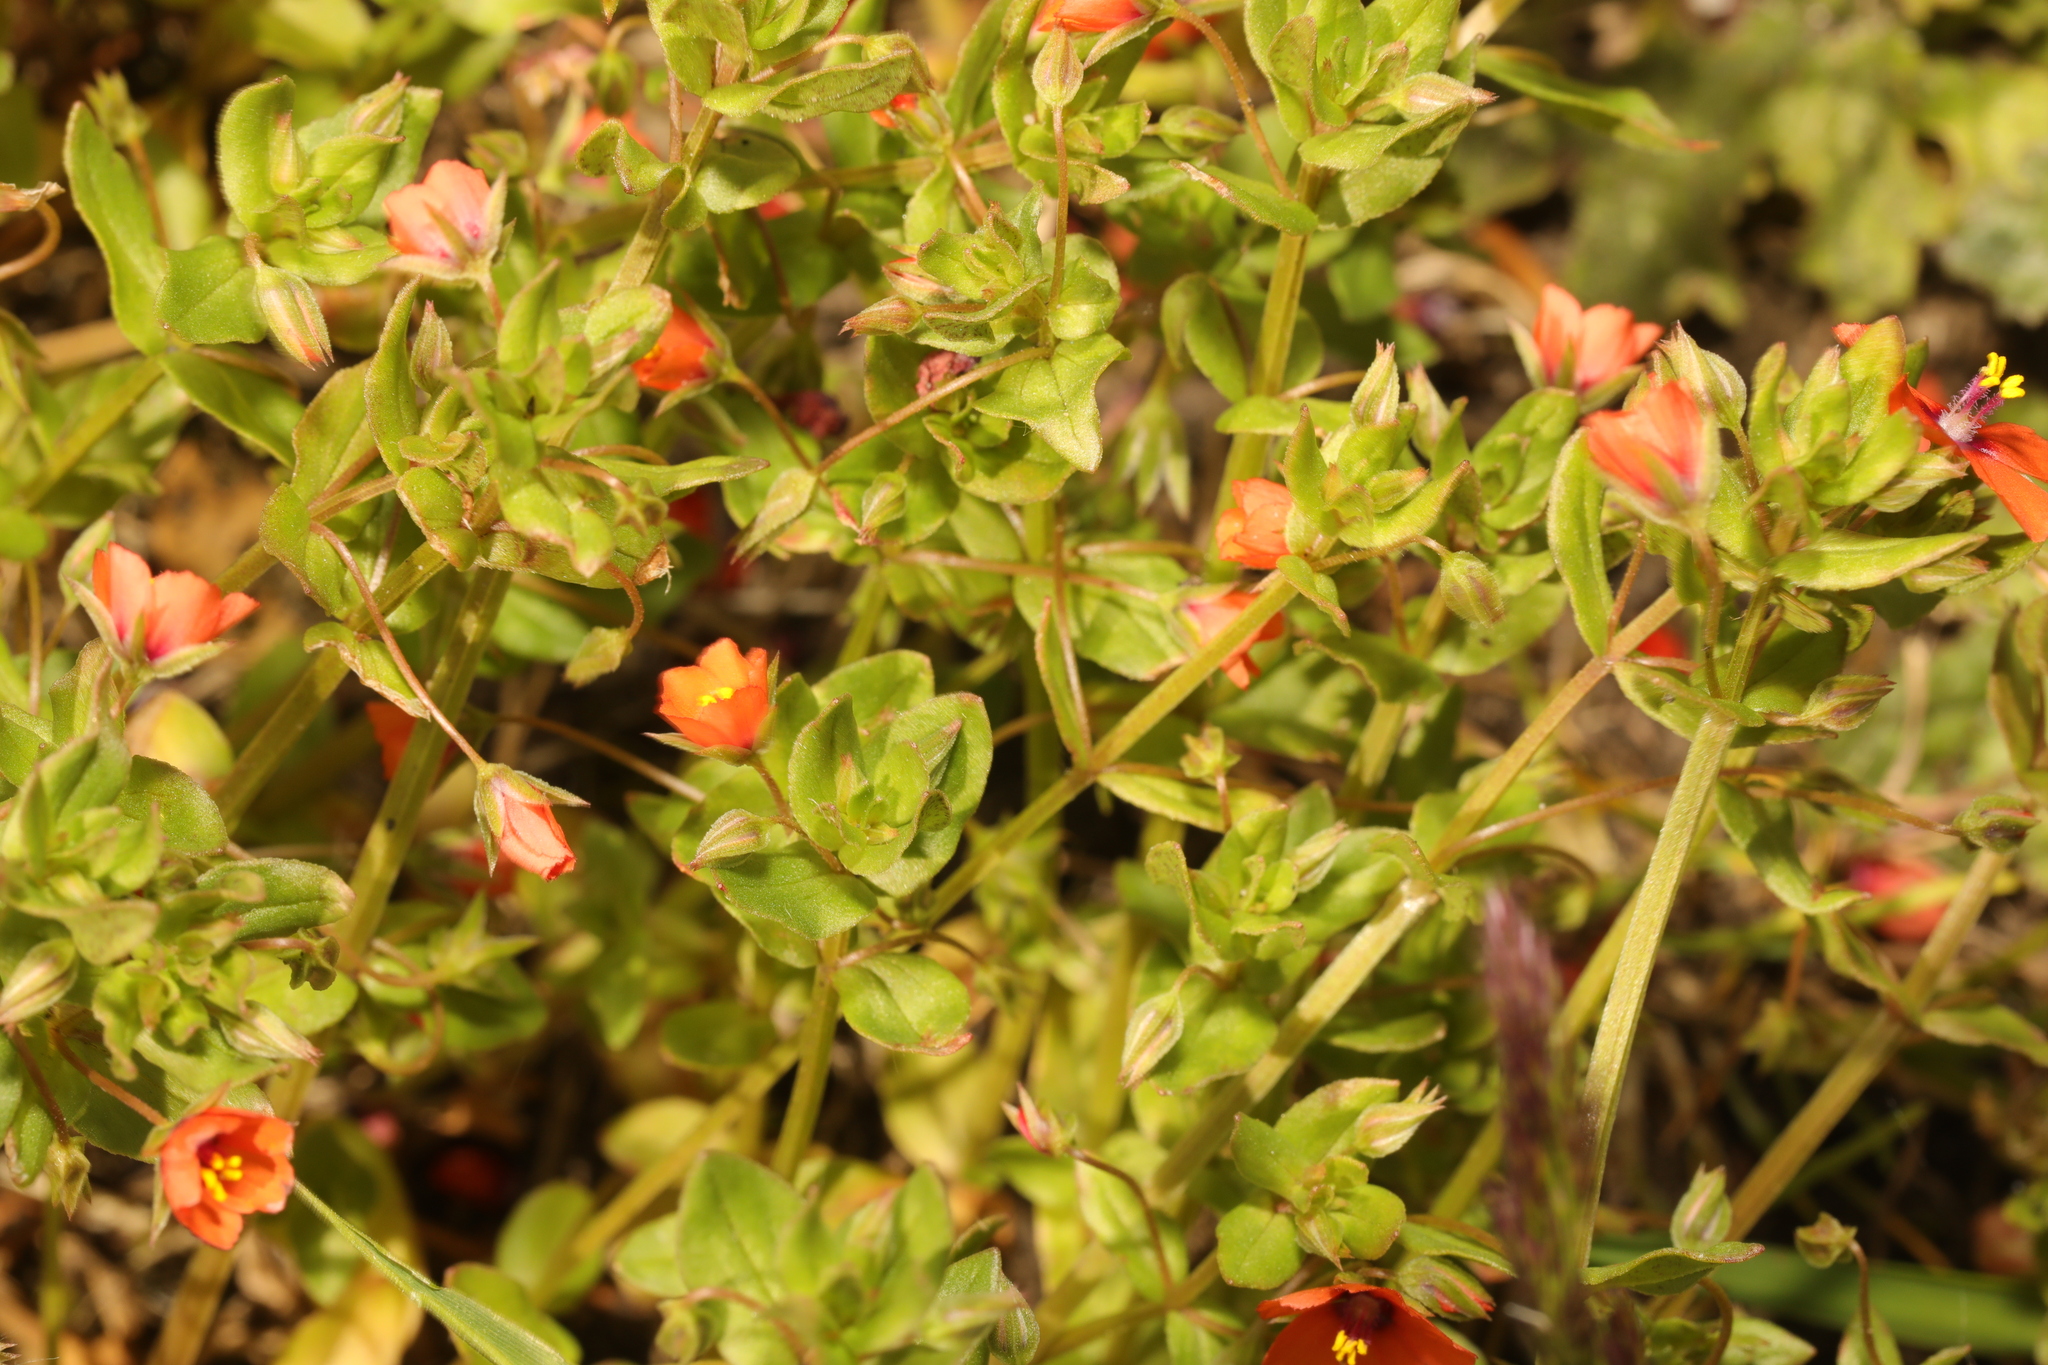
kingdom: Plantae
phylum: Tracheophyta
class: Magnoliopsida
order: Ericales
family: Primulaceae
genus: Lysimachia
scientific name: Lysimachia arvensis
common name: Scarlet pimpernel
